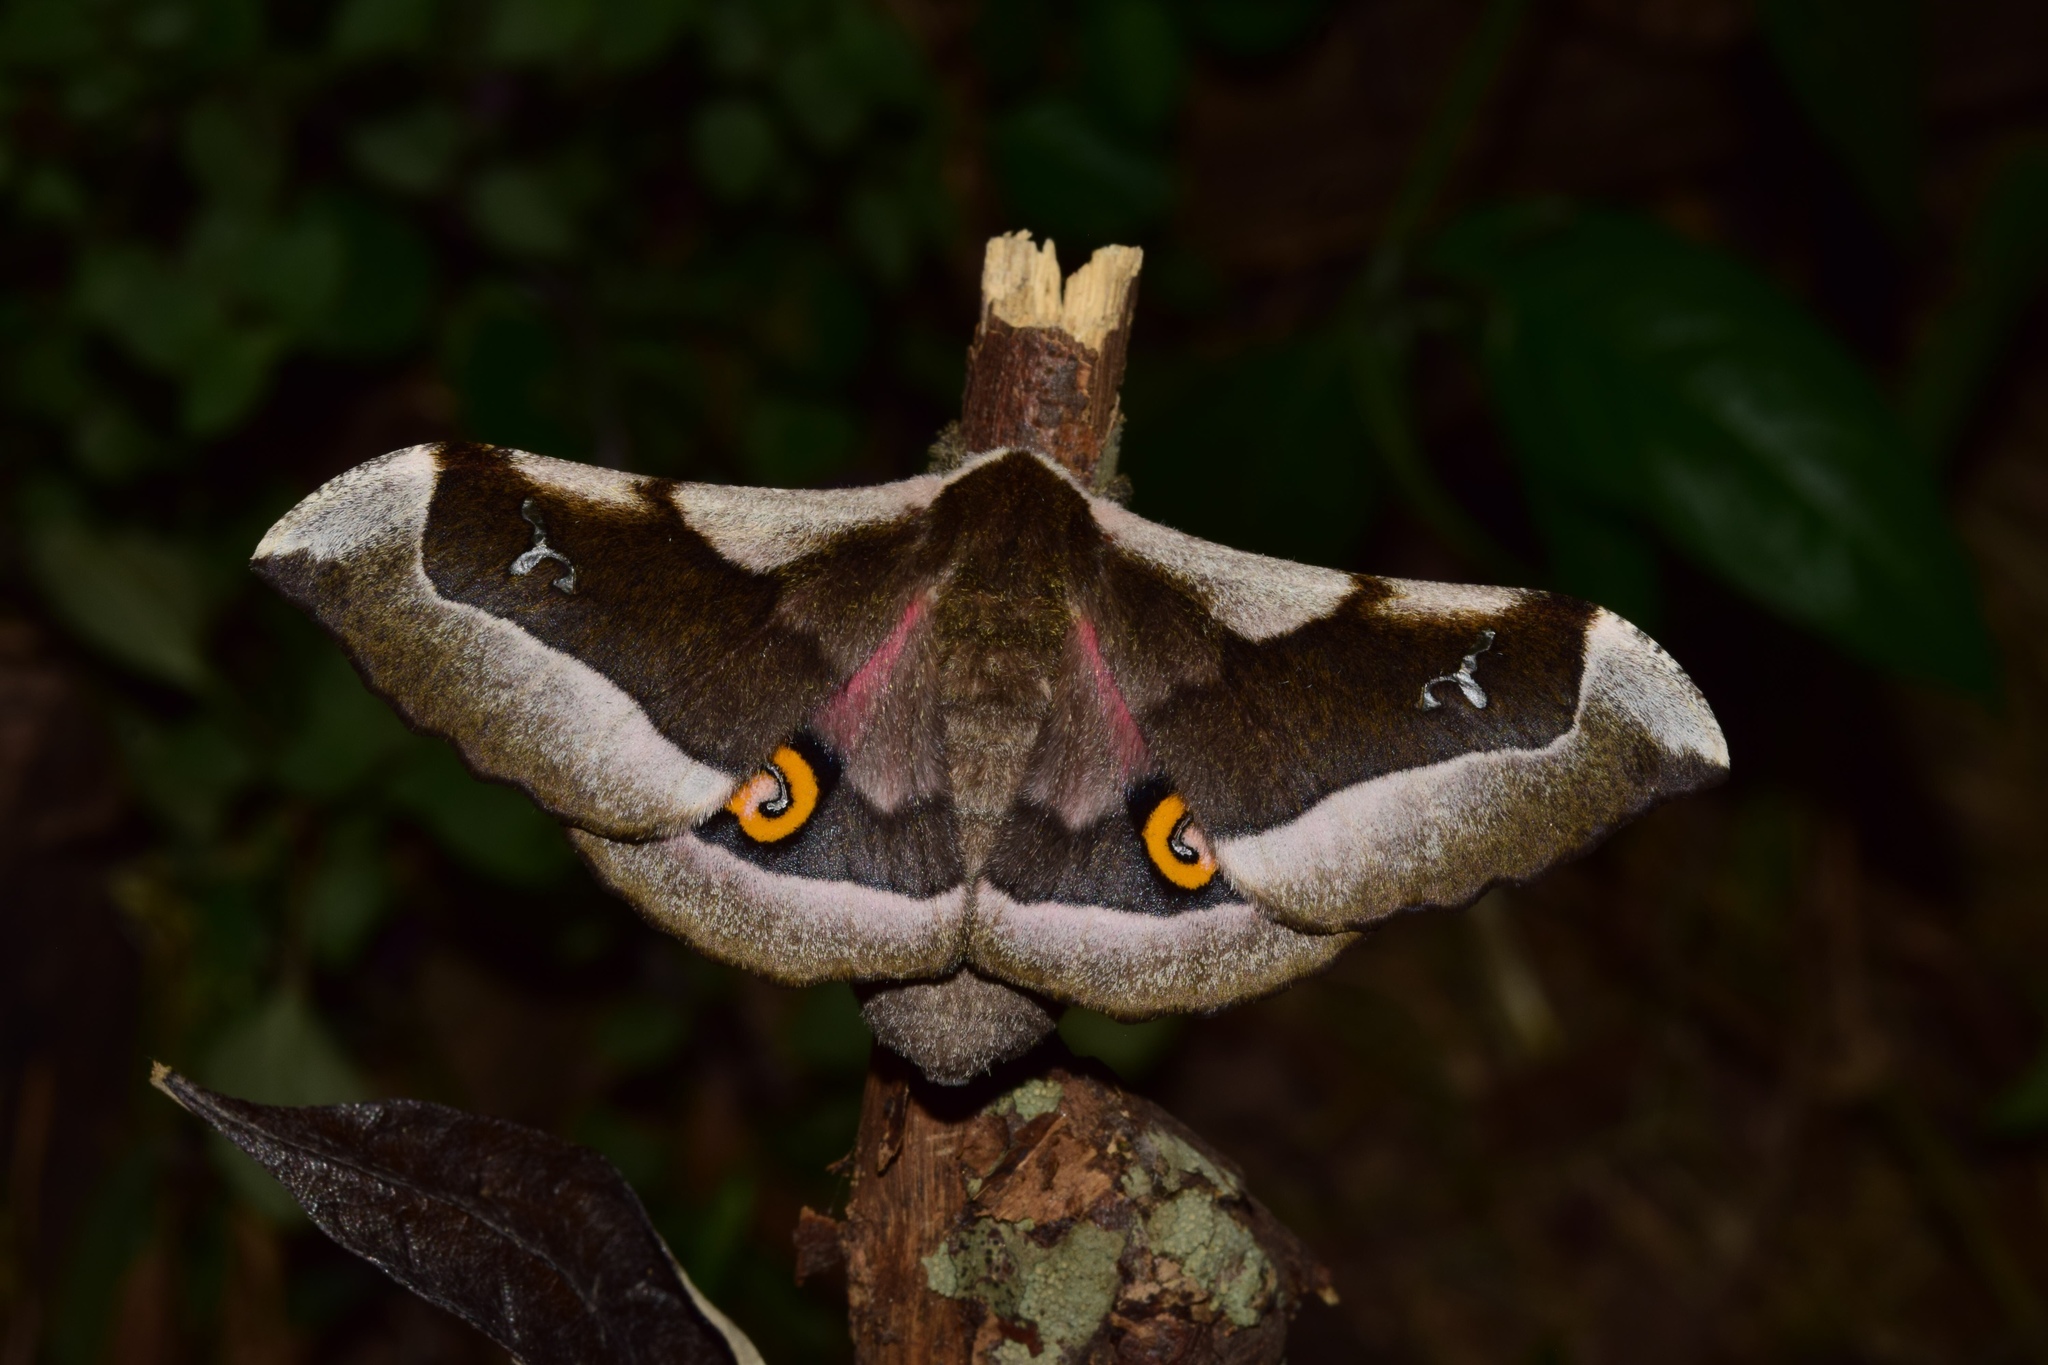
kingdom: Animalia
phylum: Arthropoda
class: Insecta
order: Lepidoptera
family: Saturniidae
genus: Ludia
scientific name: Ludia delegorguei
